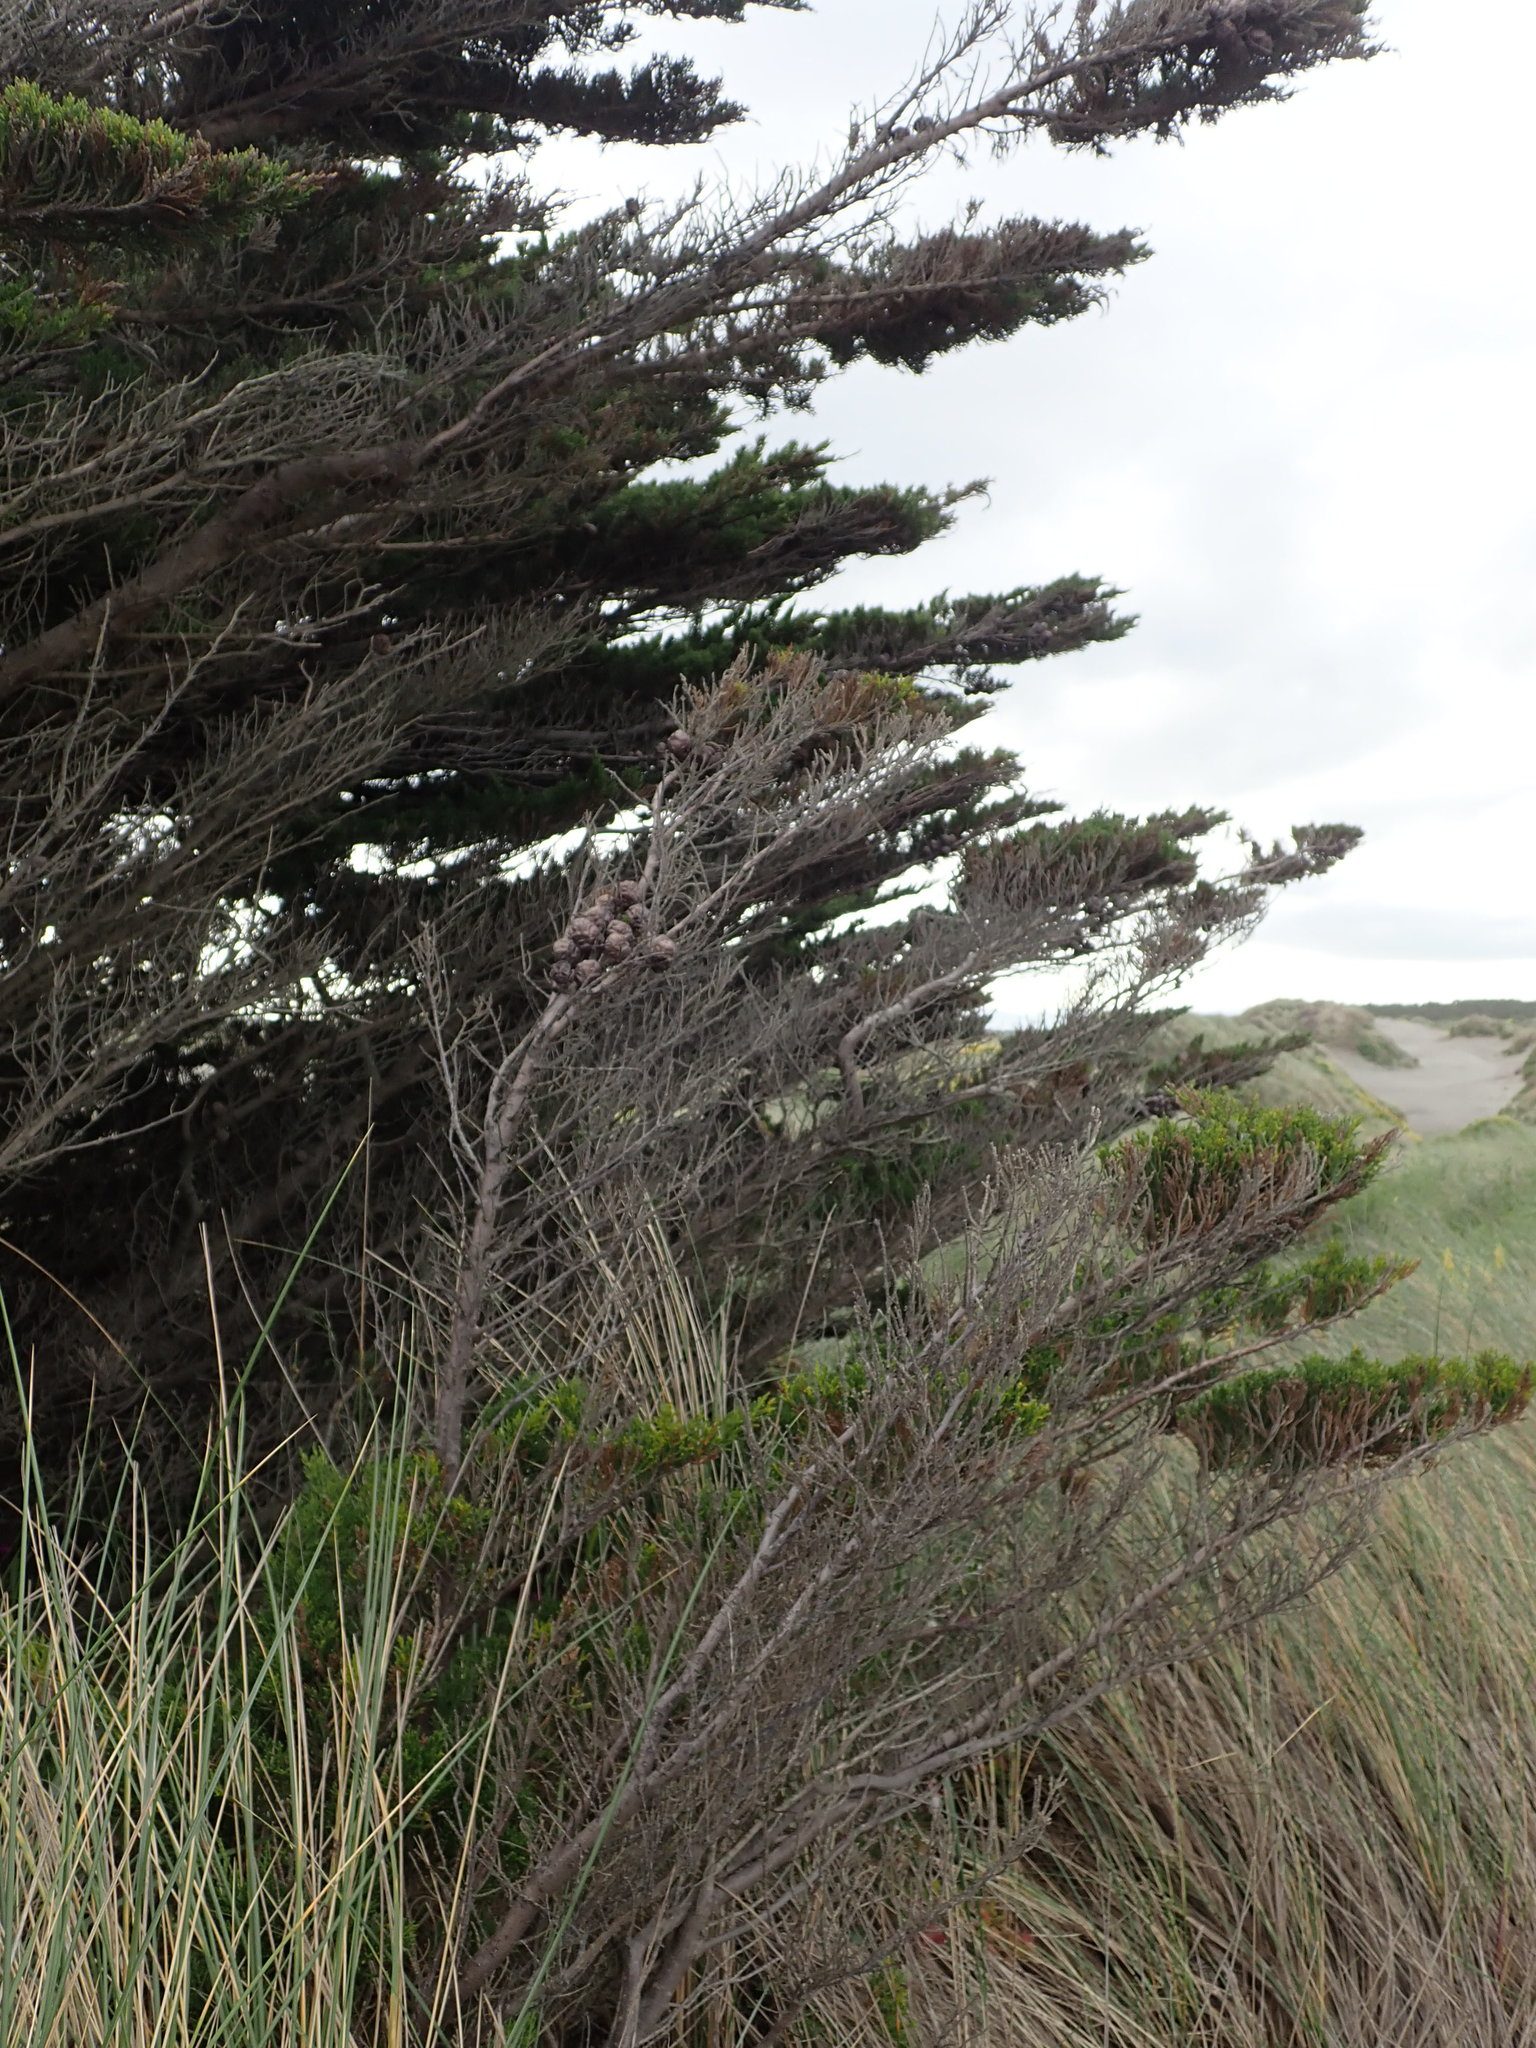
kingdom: Plantae
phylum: Tracheophyta
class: Pinopsida
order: Pinales
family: Cupressaceae
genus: Cupressus
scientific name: Cupressus macrocarpa
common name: Monterey cypress
